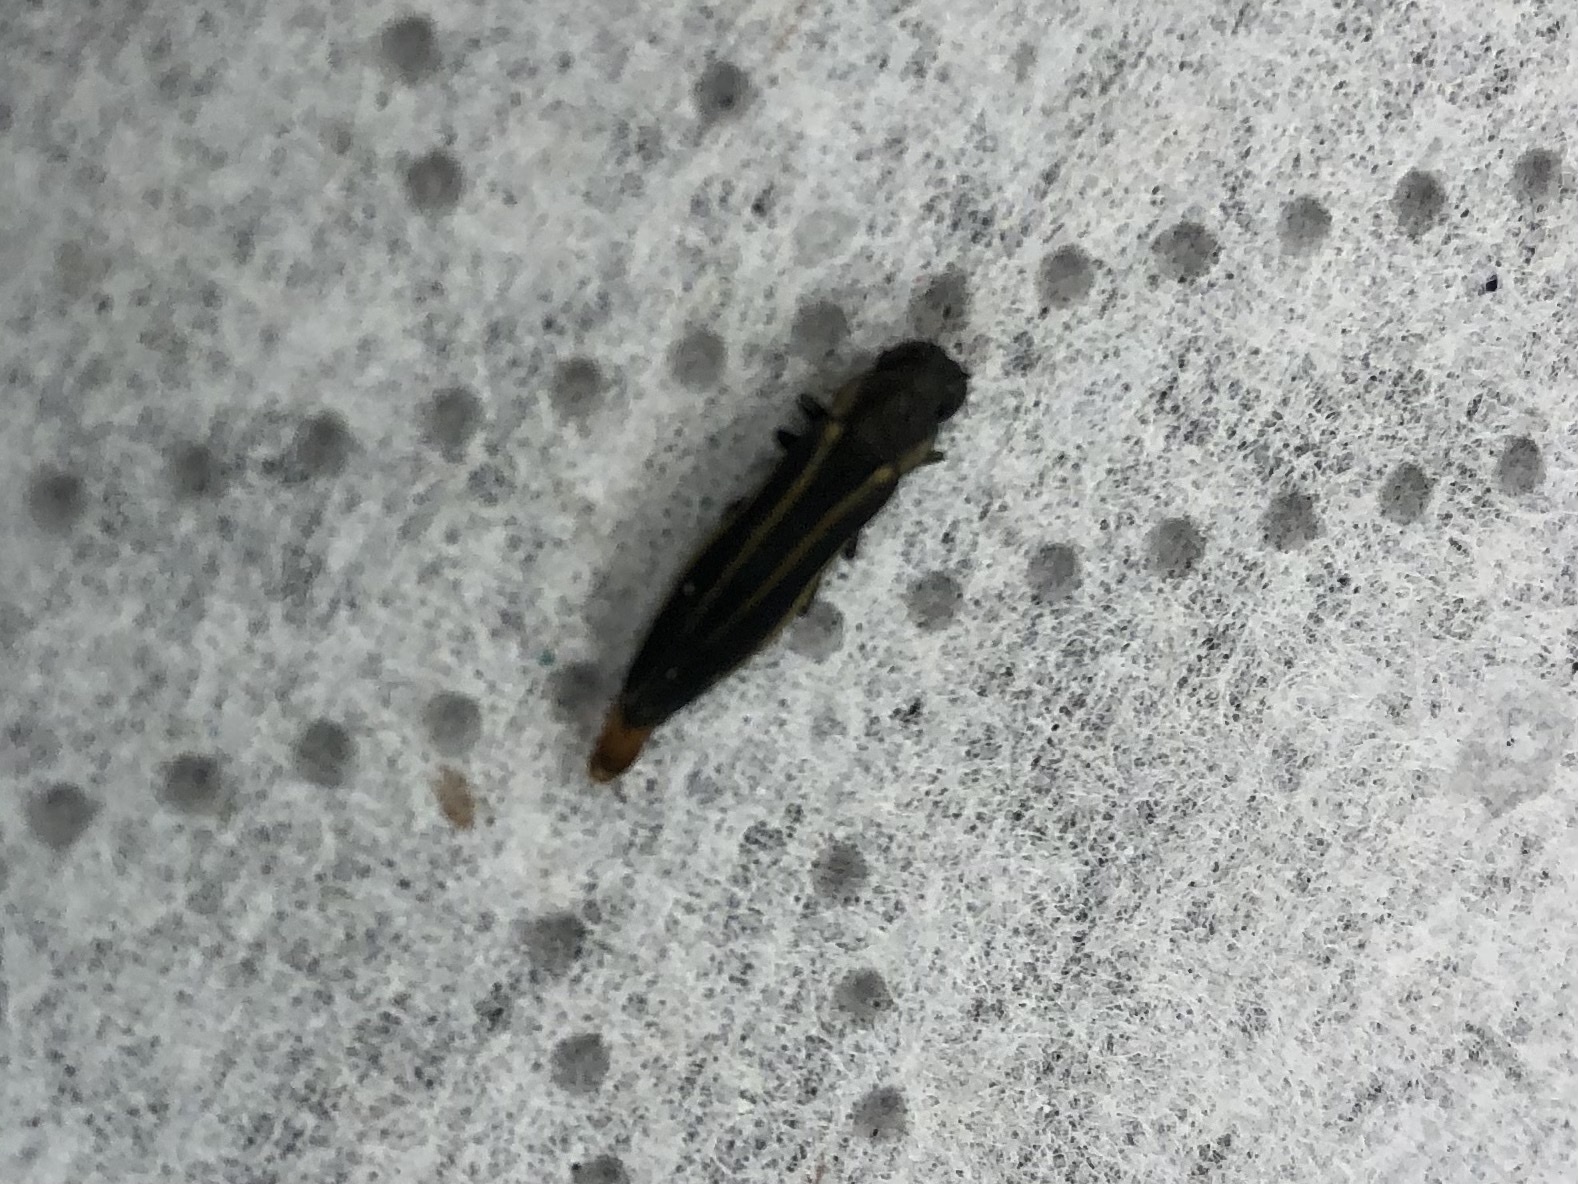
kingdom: Animalia
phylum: Arthropoda
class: Insecta
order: Coleoptera
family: Buprestidae
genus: Agrilus
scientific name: Agrilus bilineatus
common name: Two-lined chestnut borer
